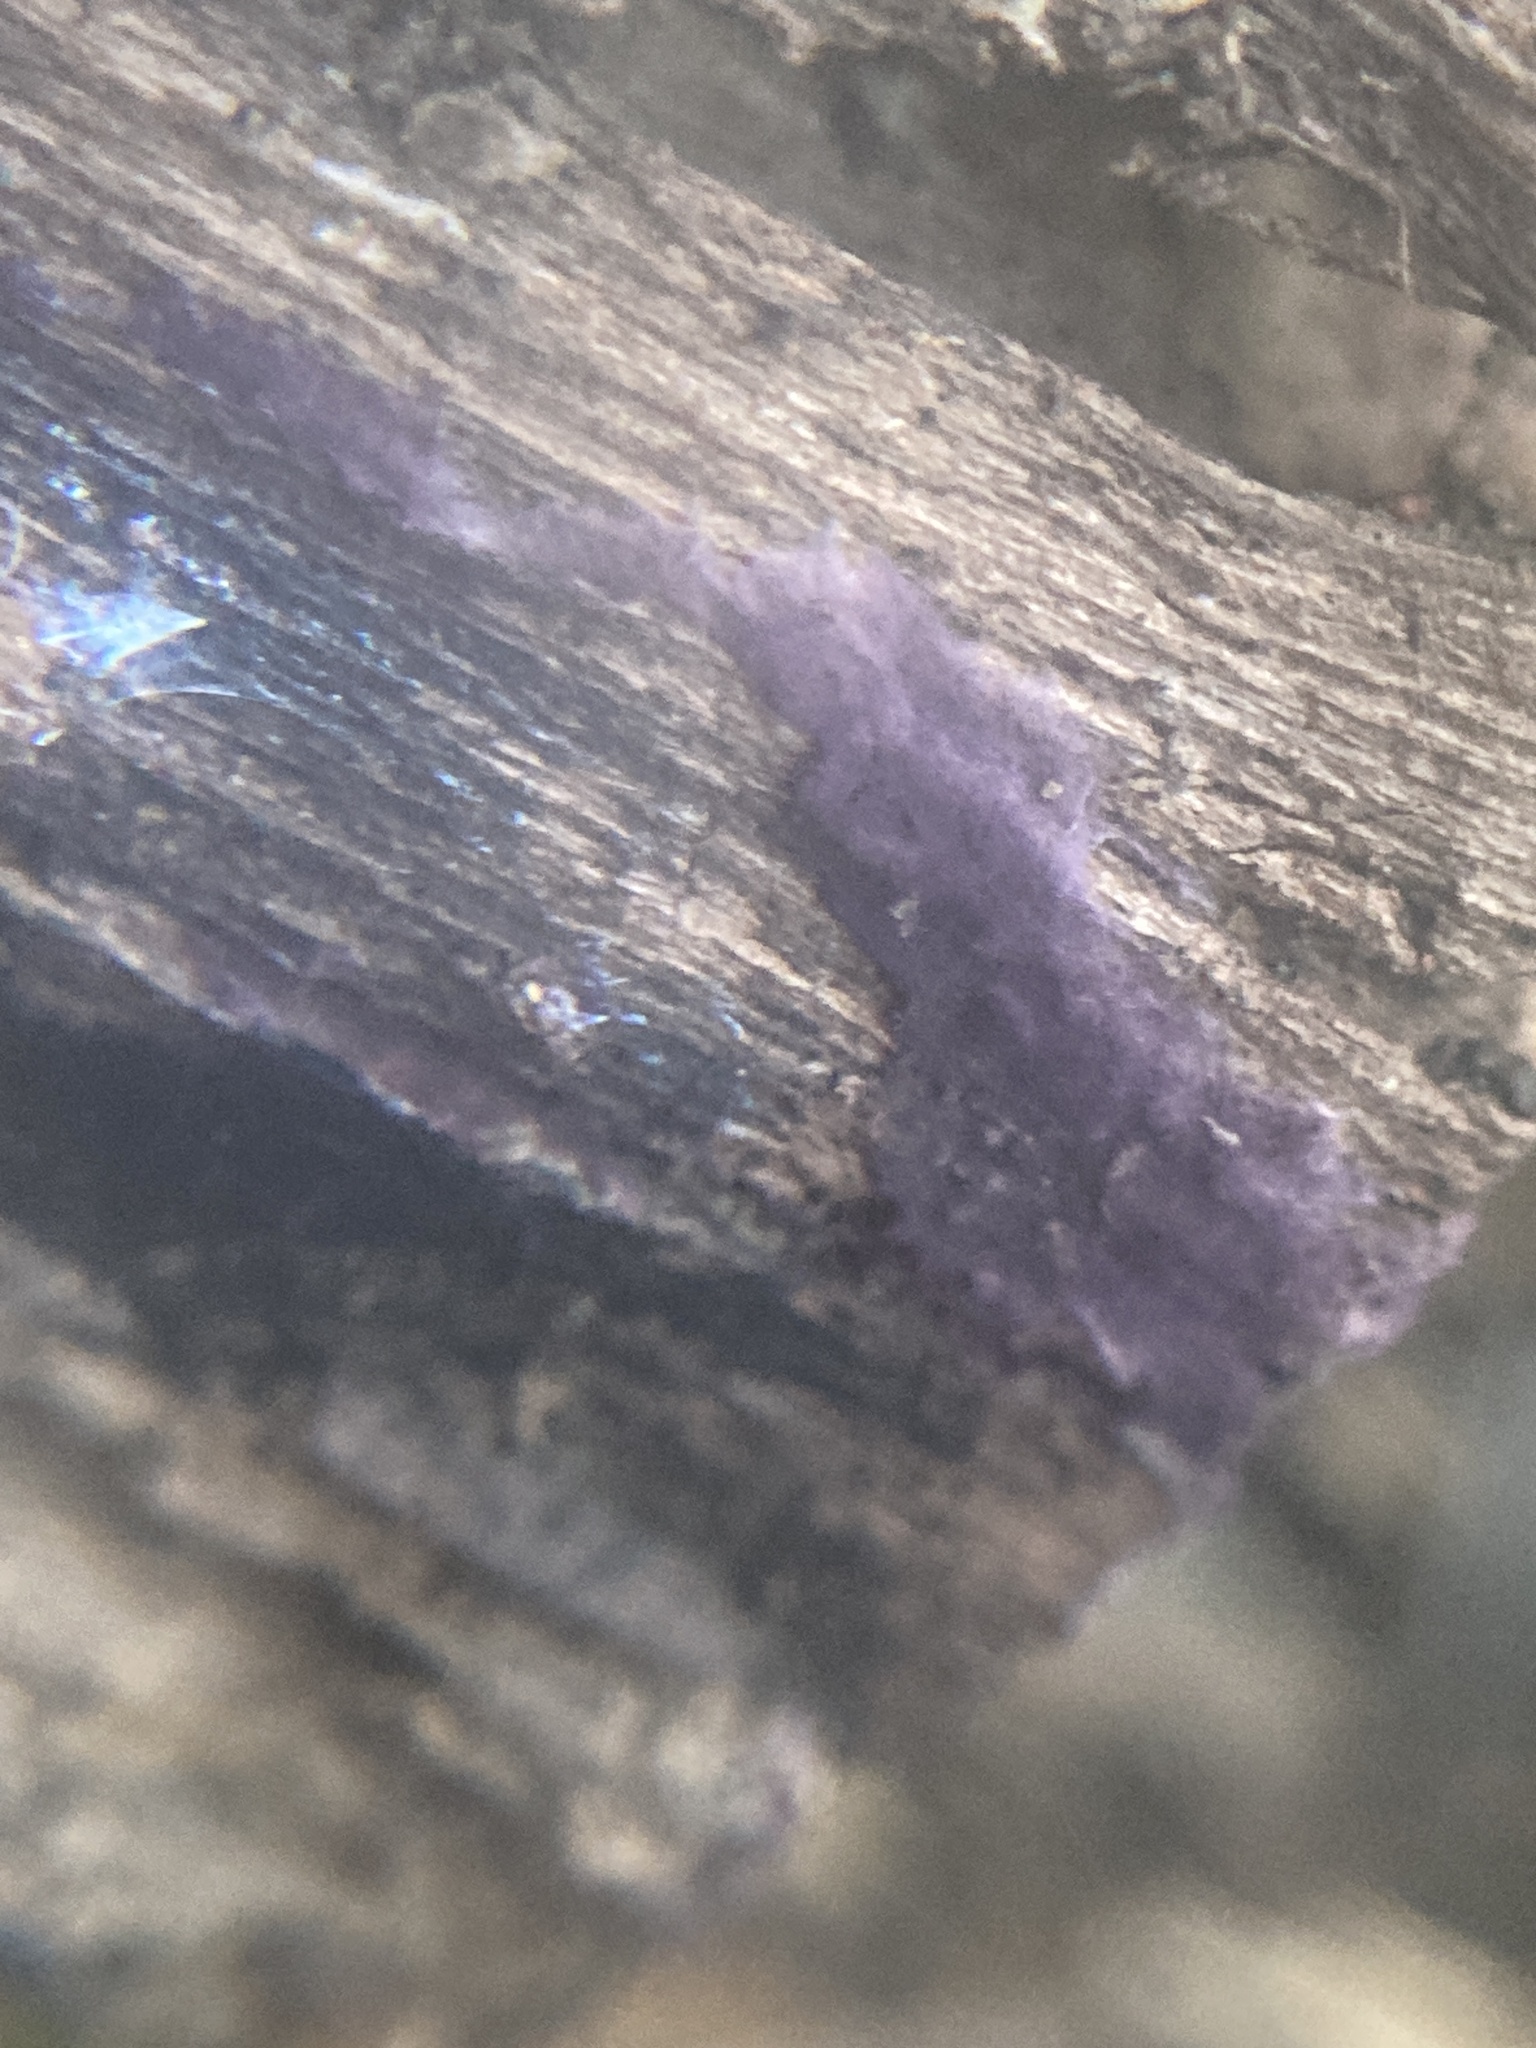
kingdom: Fungi
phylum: Basidiomycota
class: Agaricomycetes
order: Polyporales
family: Phanerochaetaceae
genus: Phlebiopsis
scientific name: Phlebiopsis crassa
